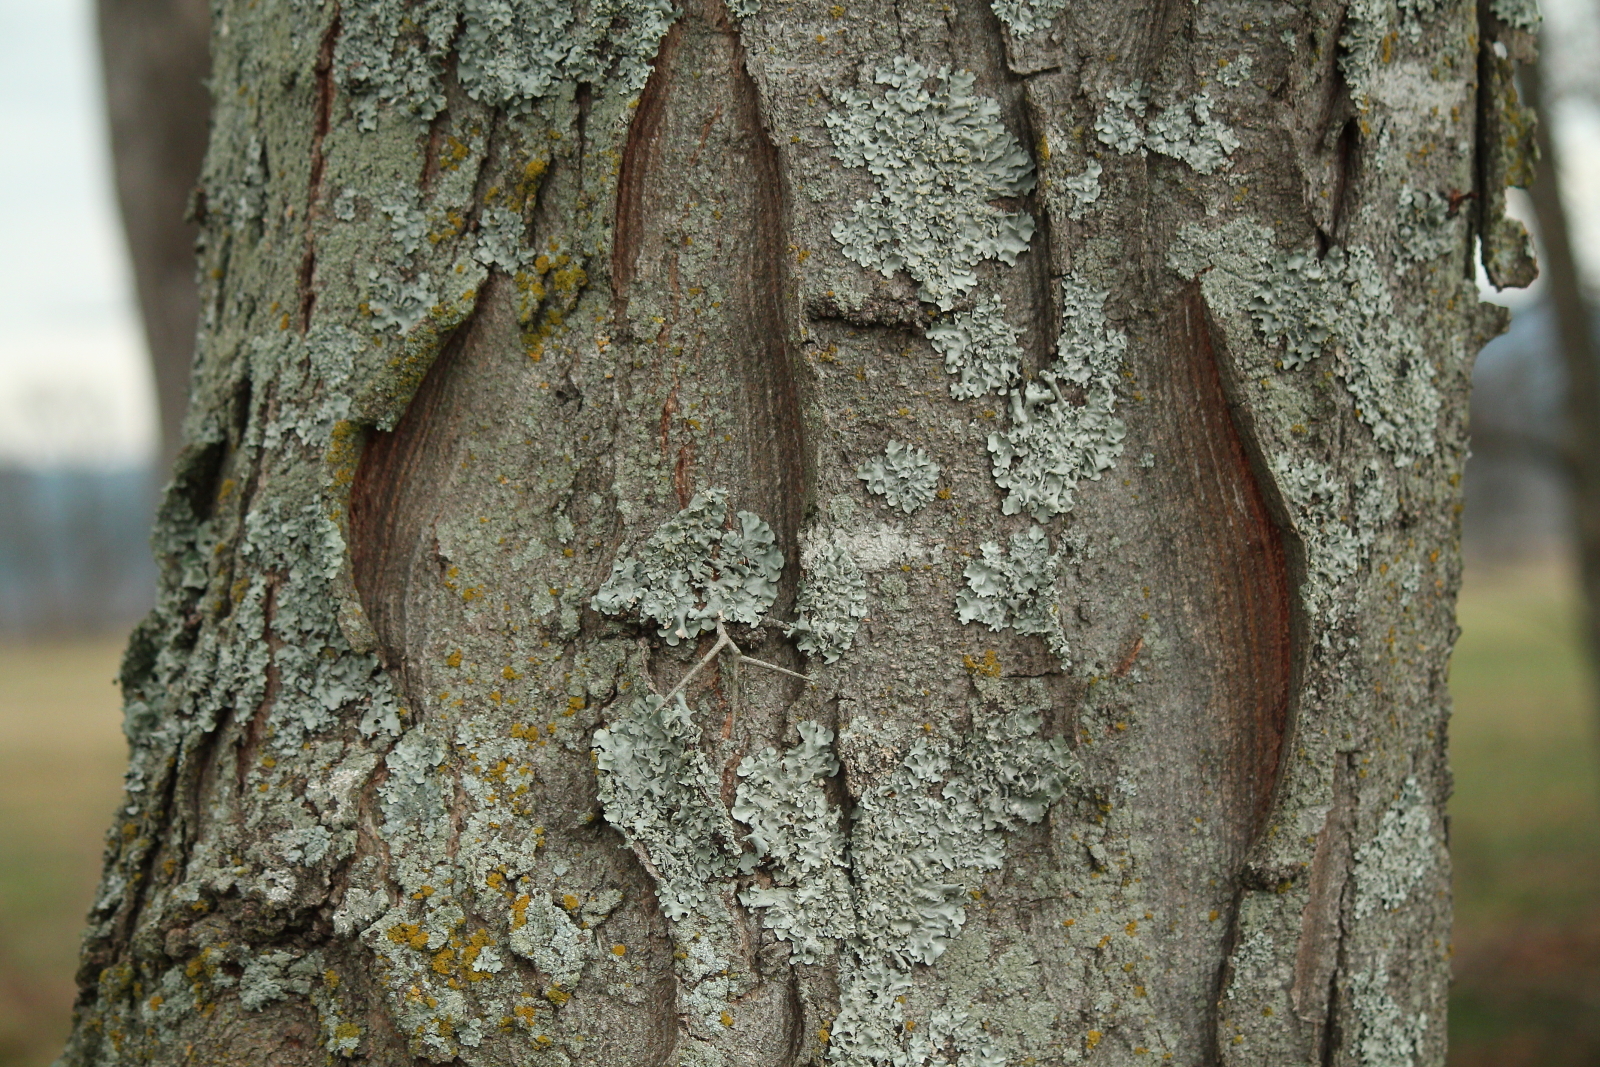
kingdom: Plantae
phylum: Tracheophyta
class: Magnoliopsida
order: Fabales
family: Fabaceae
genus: Gleditsia
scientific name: Gleditsia triacanthos
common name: Common honeylocust
